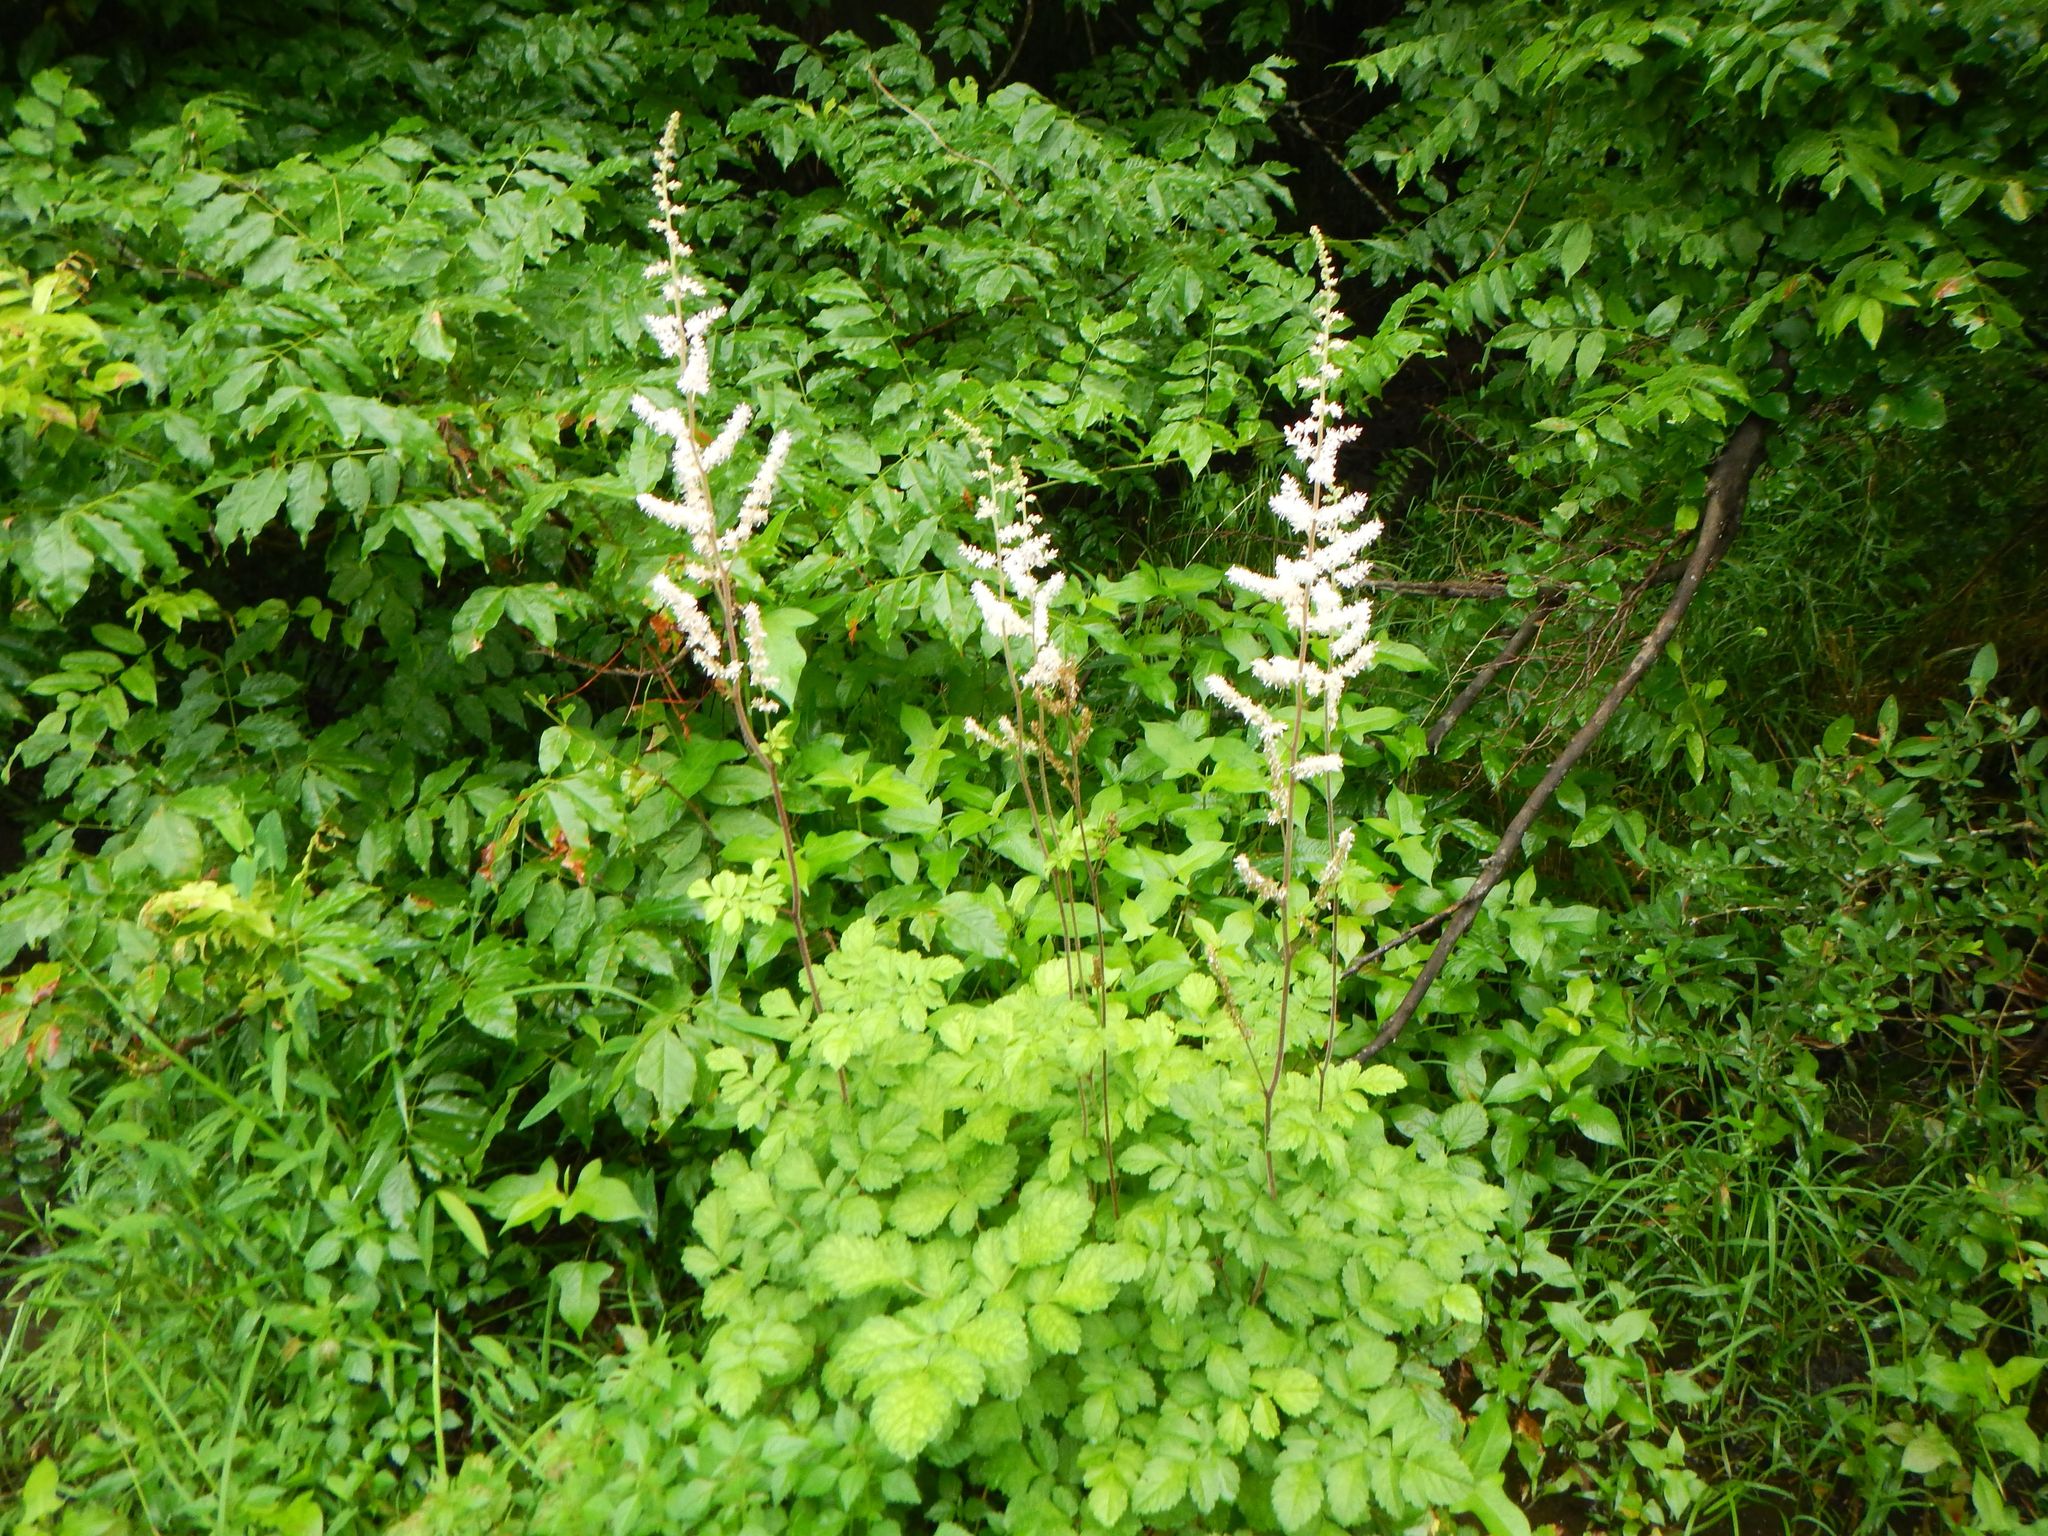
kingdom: Plantae
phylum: Tracheophyta
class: Magnoliopsida
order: Saxifragales
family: Saxifragaceae
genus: Astilbe
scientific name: Astilbe microphylla
